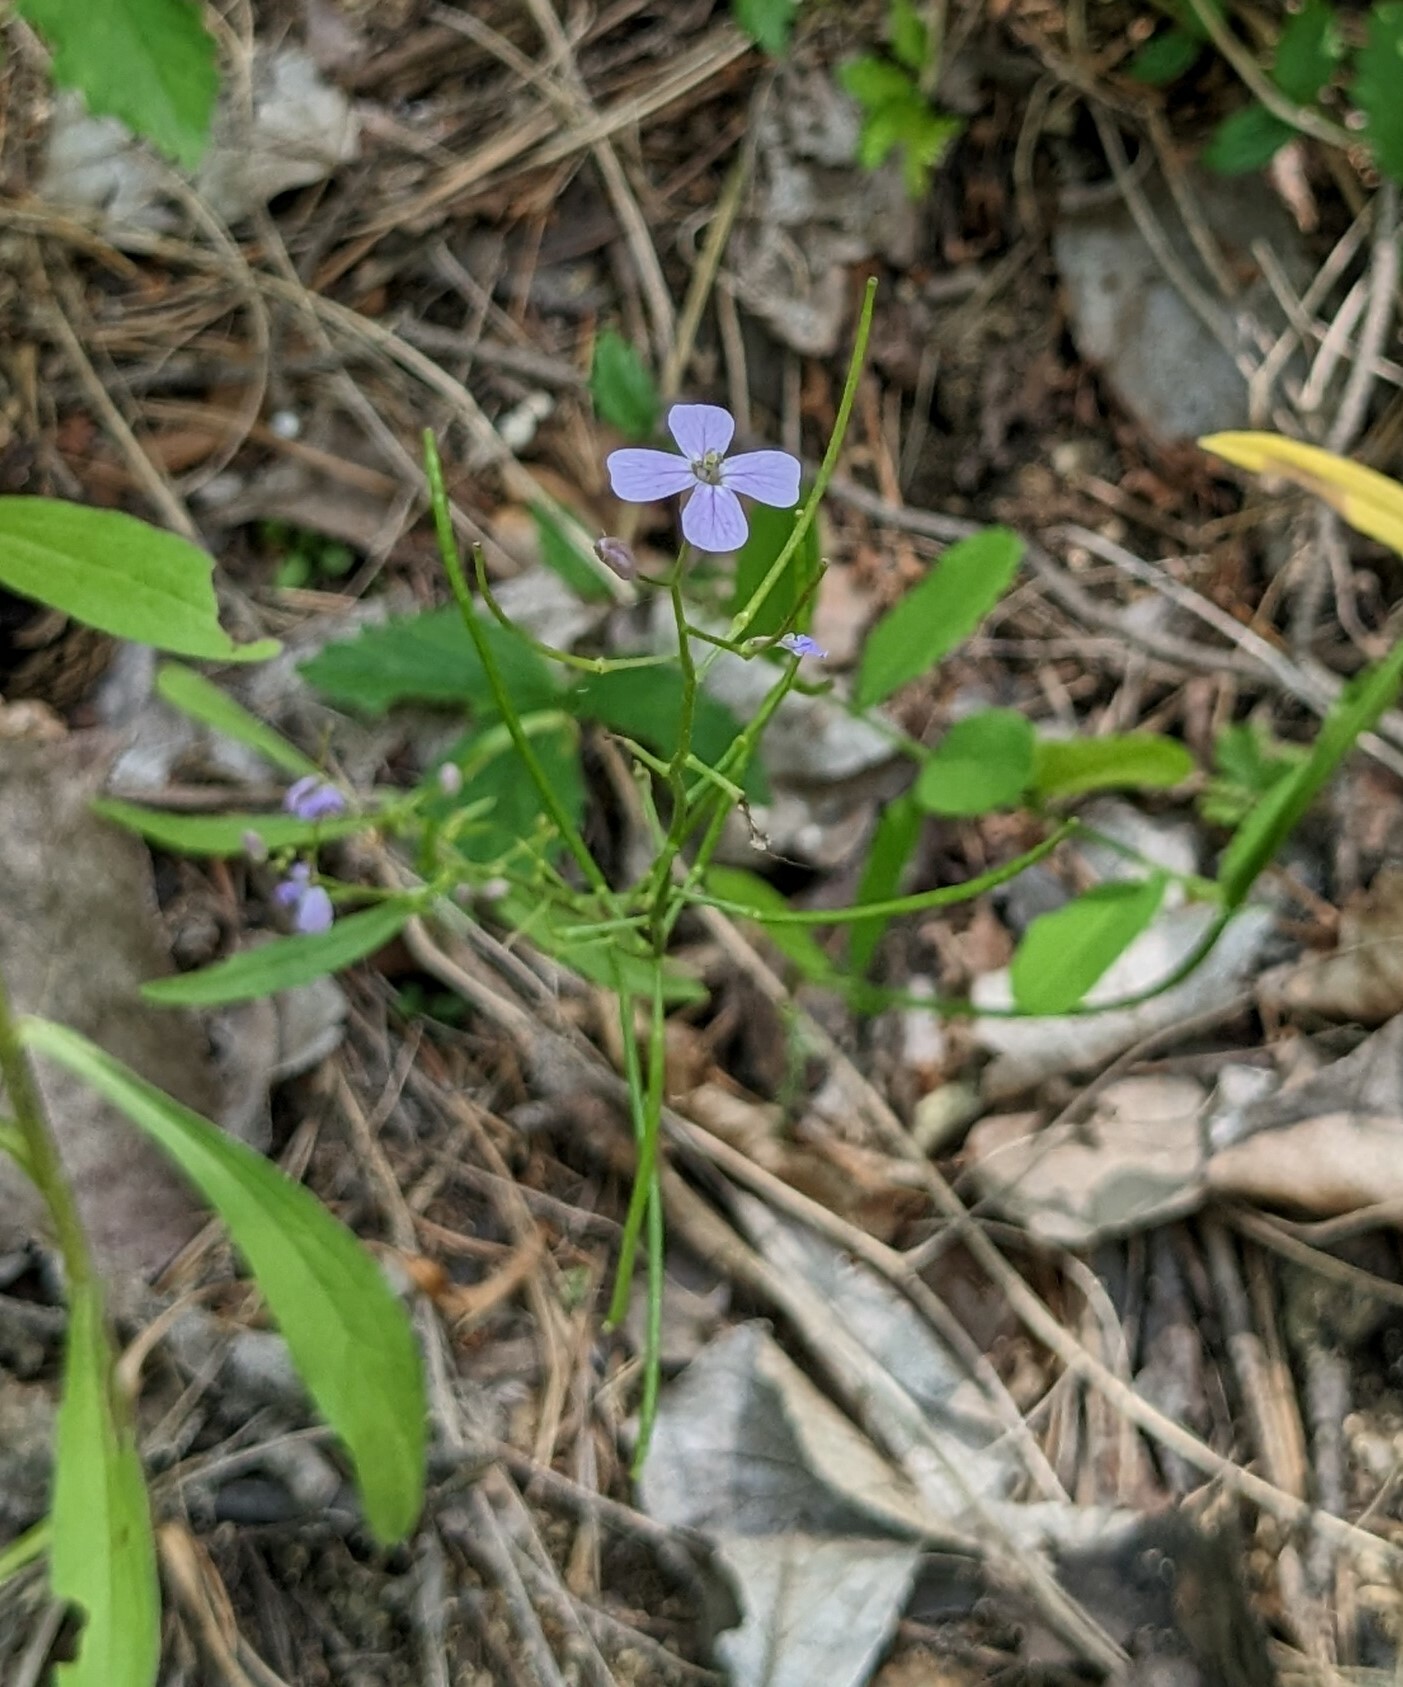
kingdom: Plantae
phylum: Tracheophyta
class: Magnoliopsida
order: Brassicales
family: Brassicaceae
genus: Dontostemon
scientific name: Dontostemon dentatus
